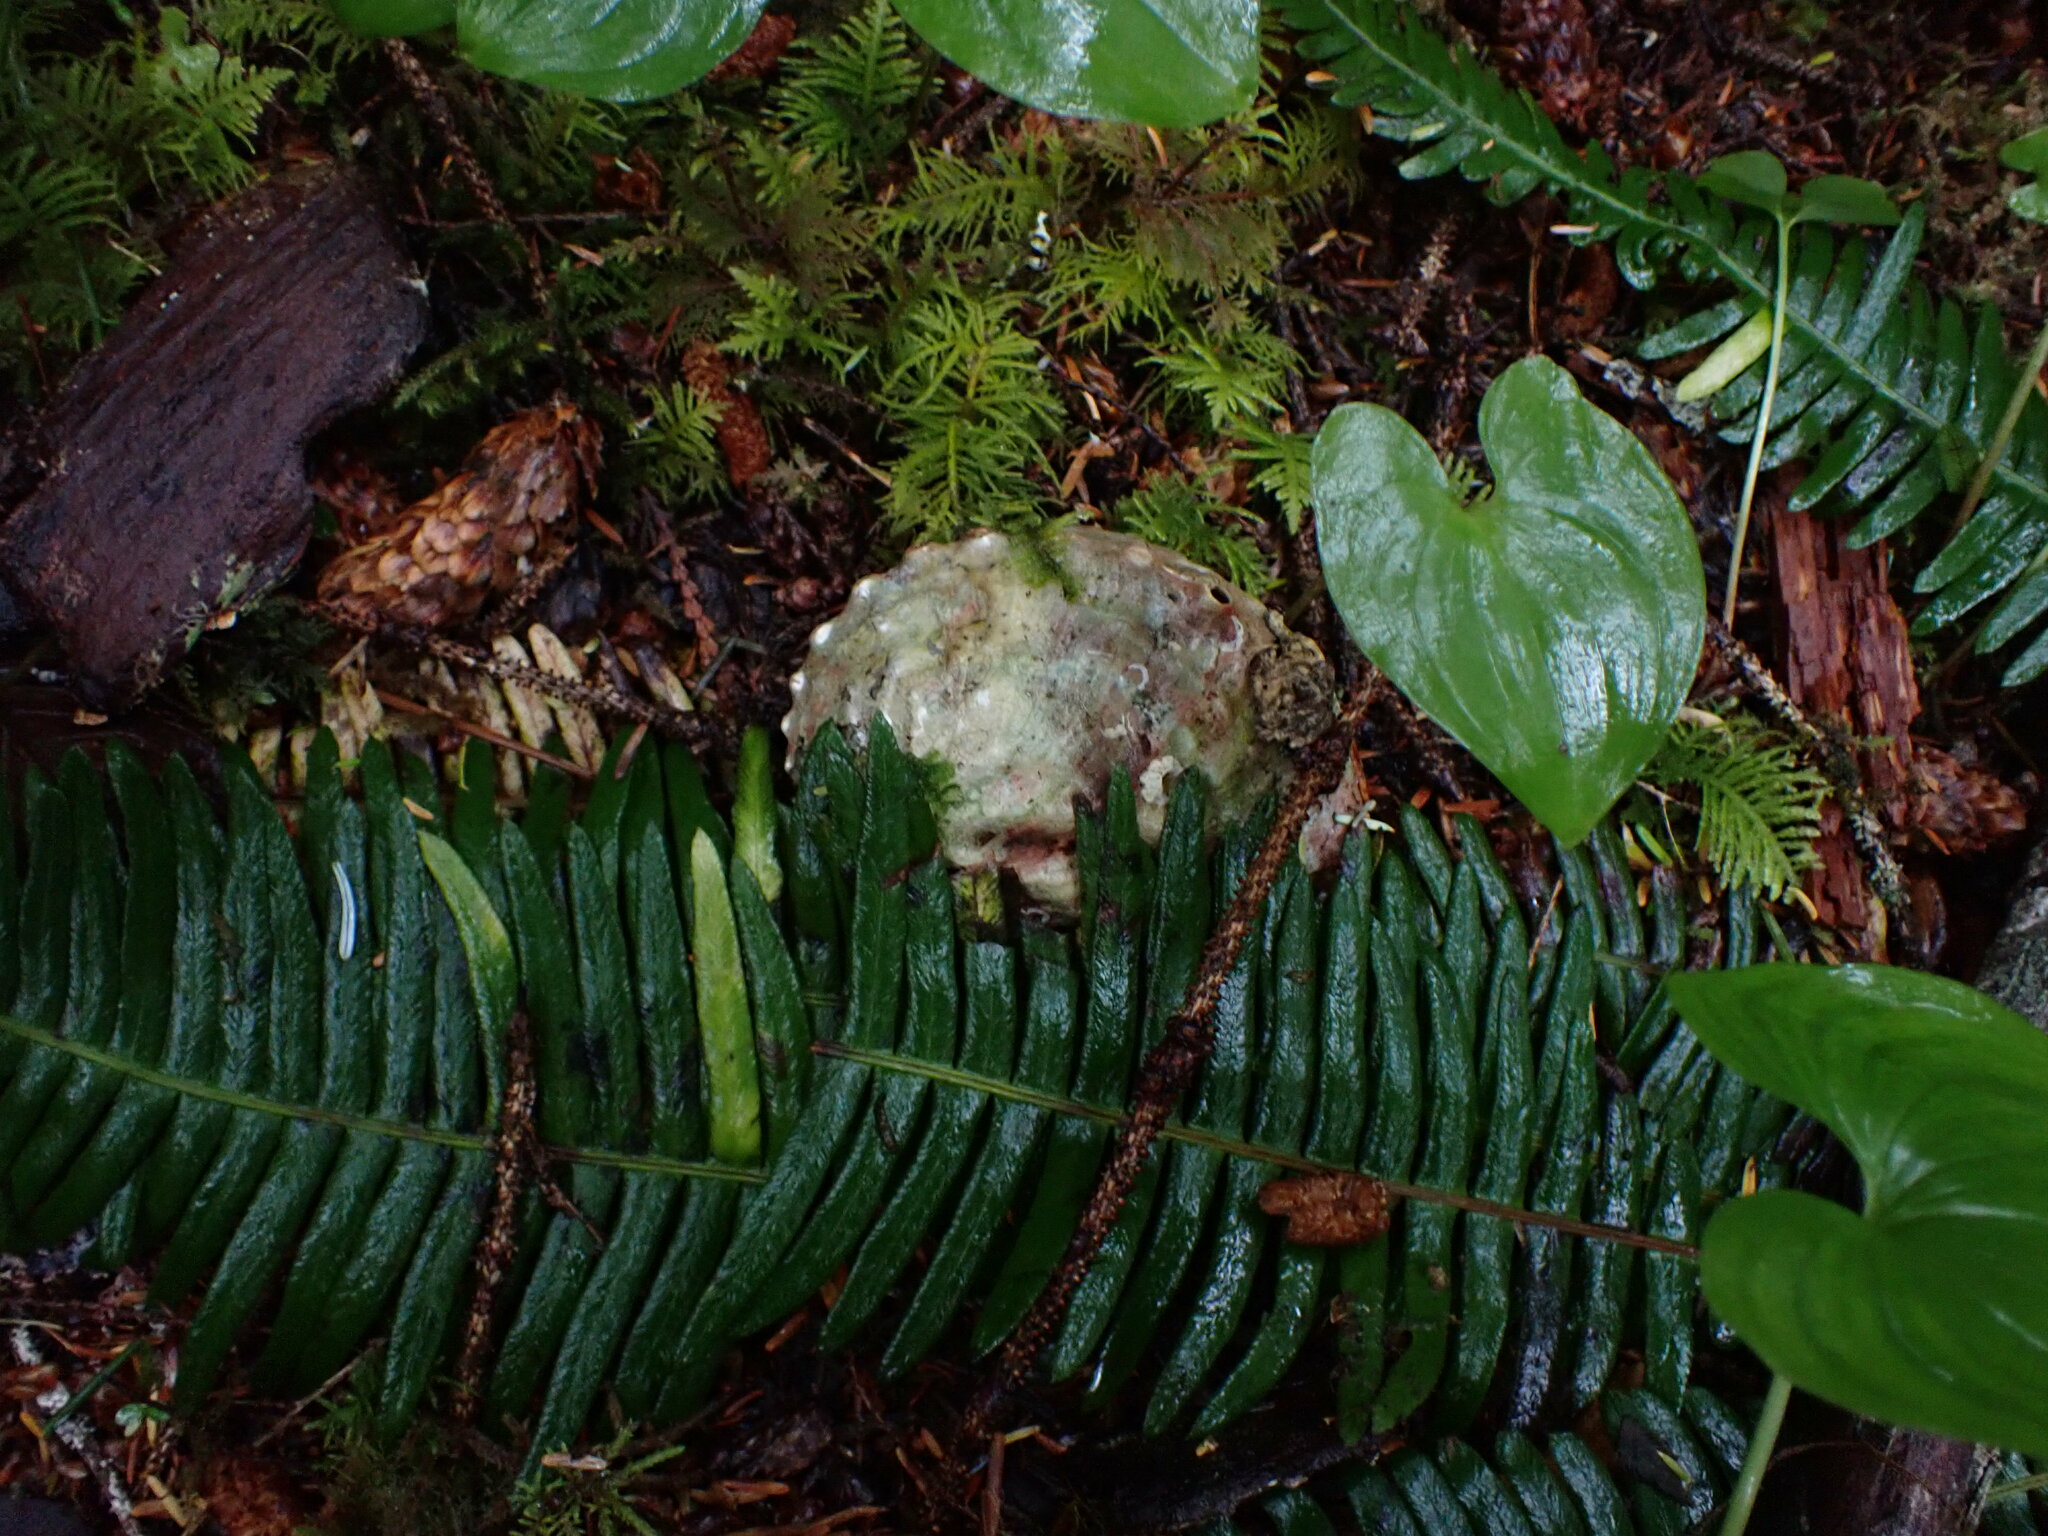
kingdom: Animalia
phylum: Mollusca
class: Gastropoda
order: Lepetellida
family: Haliotidae
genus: Haliotis
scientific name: Haliotis kamtschatkana
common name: Pinto abalone
